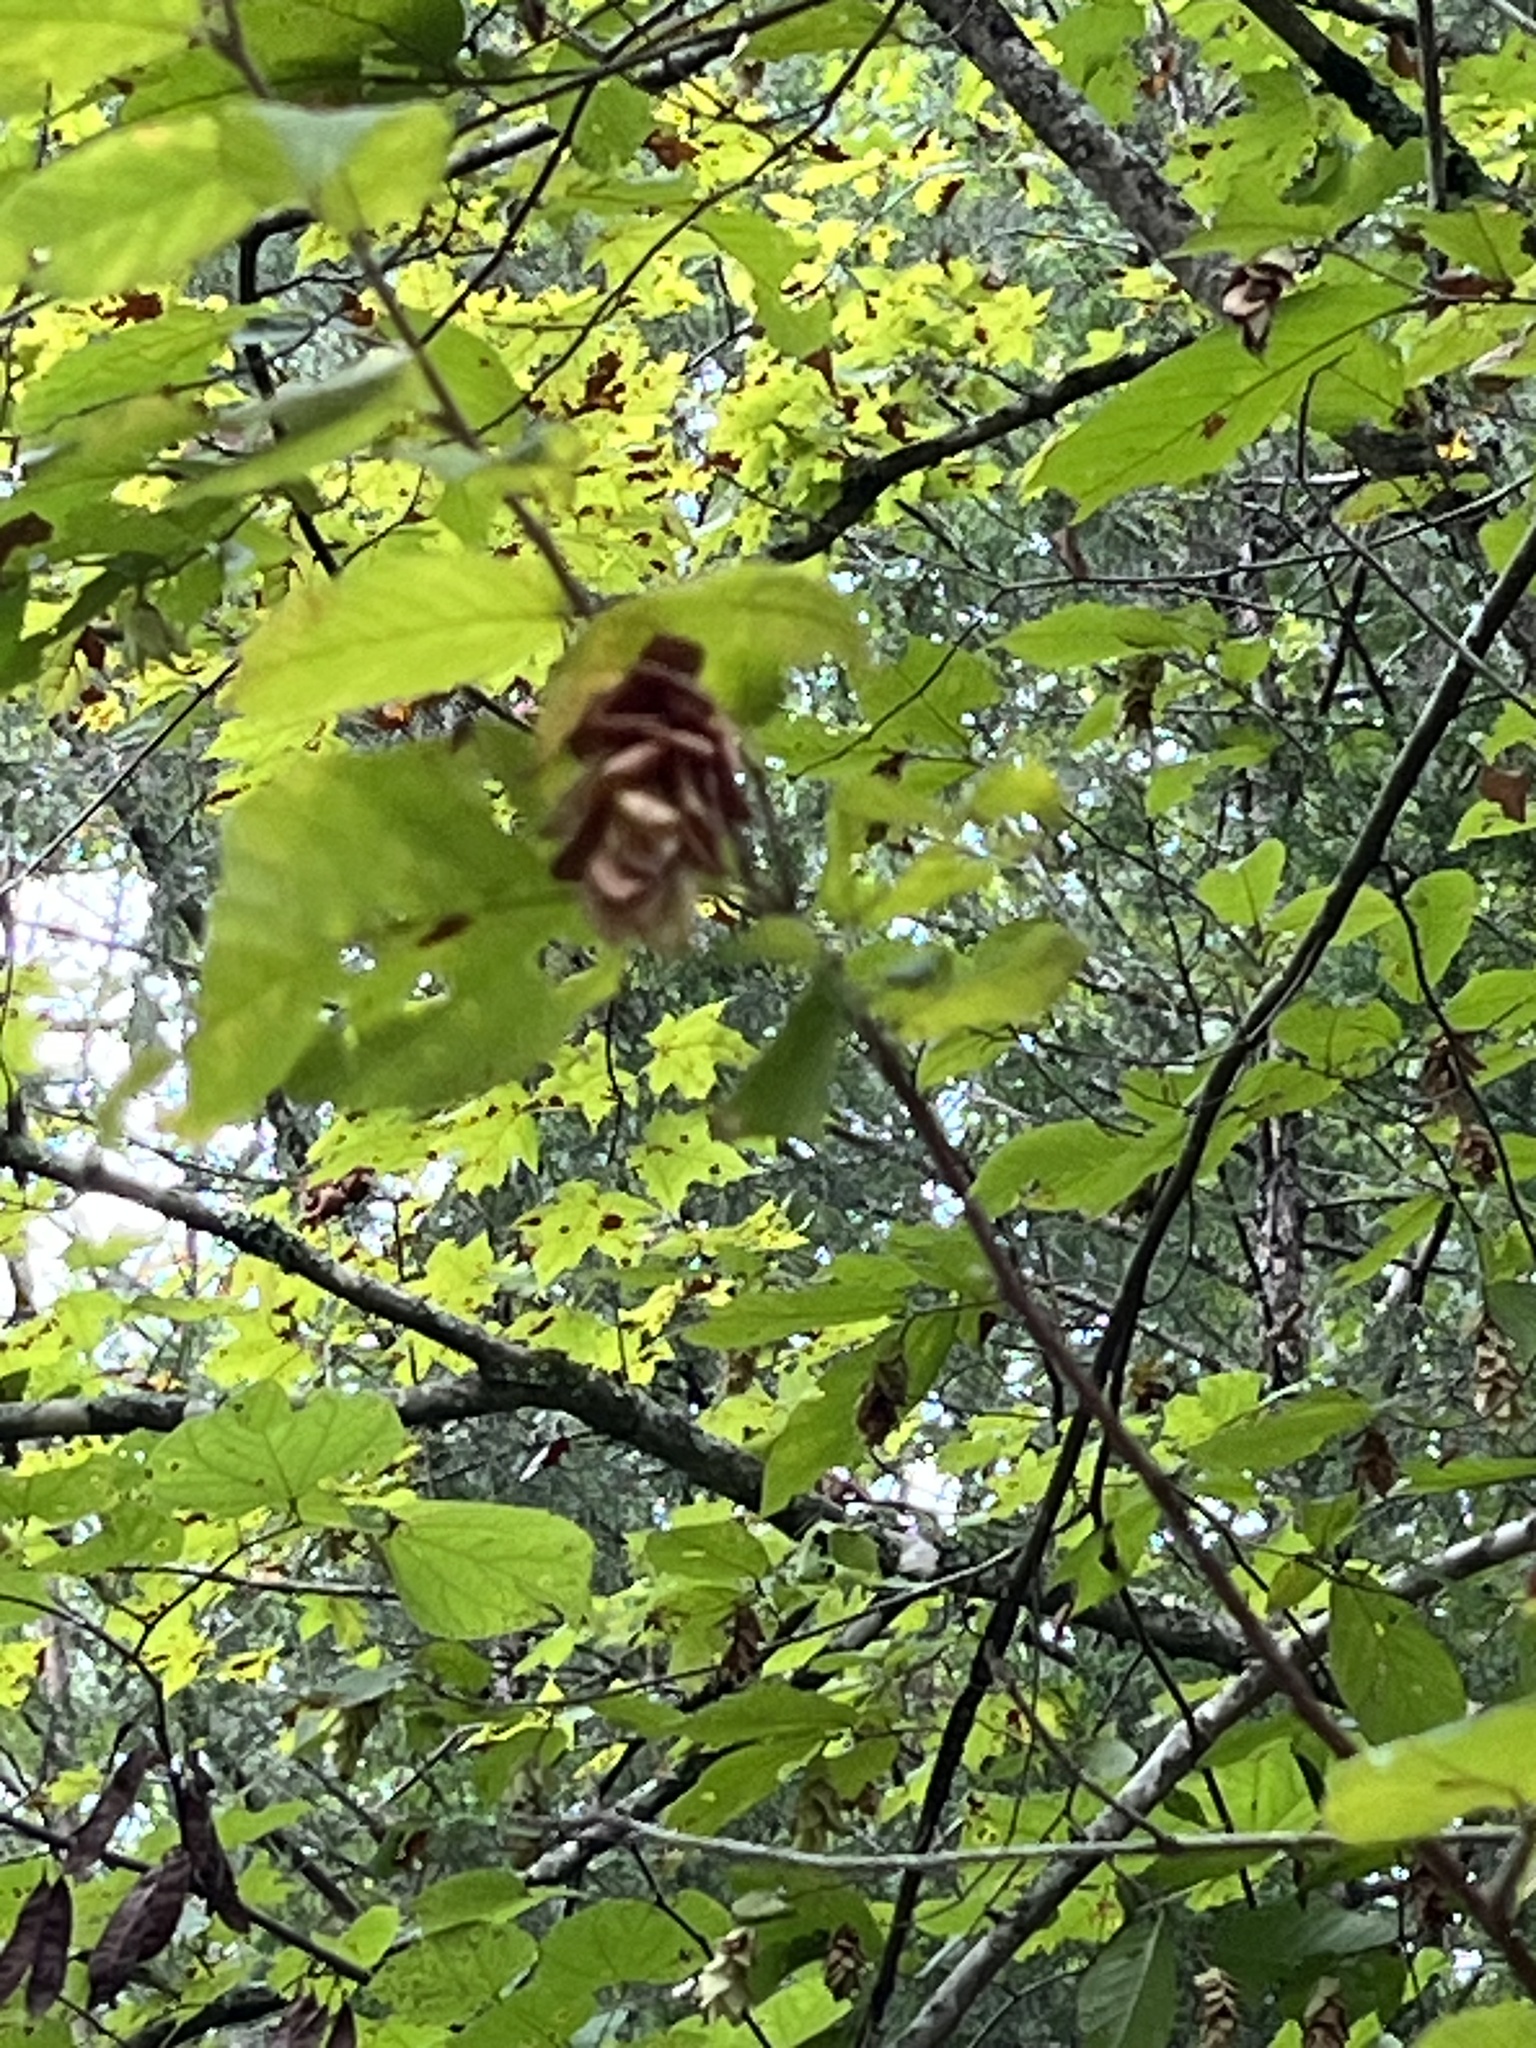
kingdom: Plantae
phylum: Tracheophyta
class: Magnoliopsida
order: Asterales
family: Asteraceae
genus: Silphium
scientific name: Silphium terebinthinaceum
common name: Basal-leaf rosinweed
